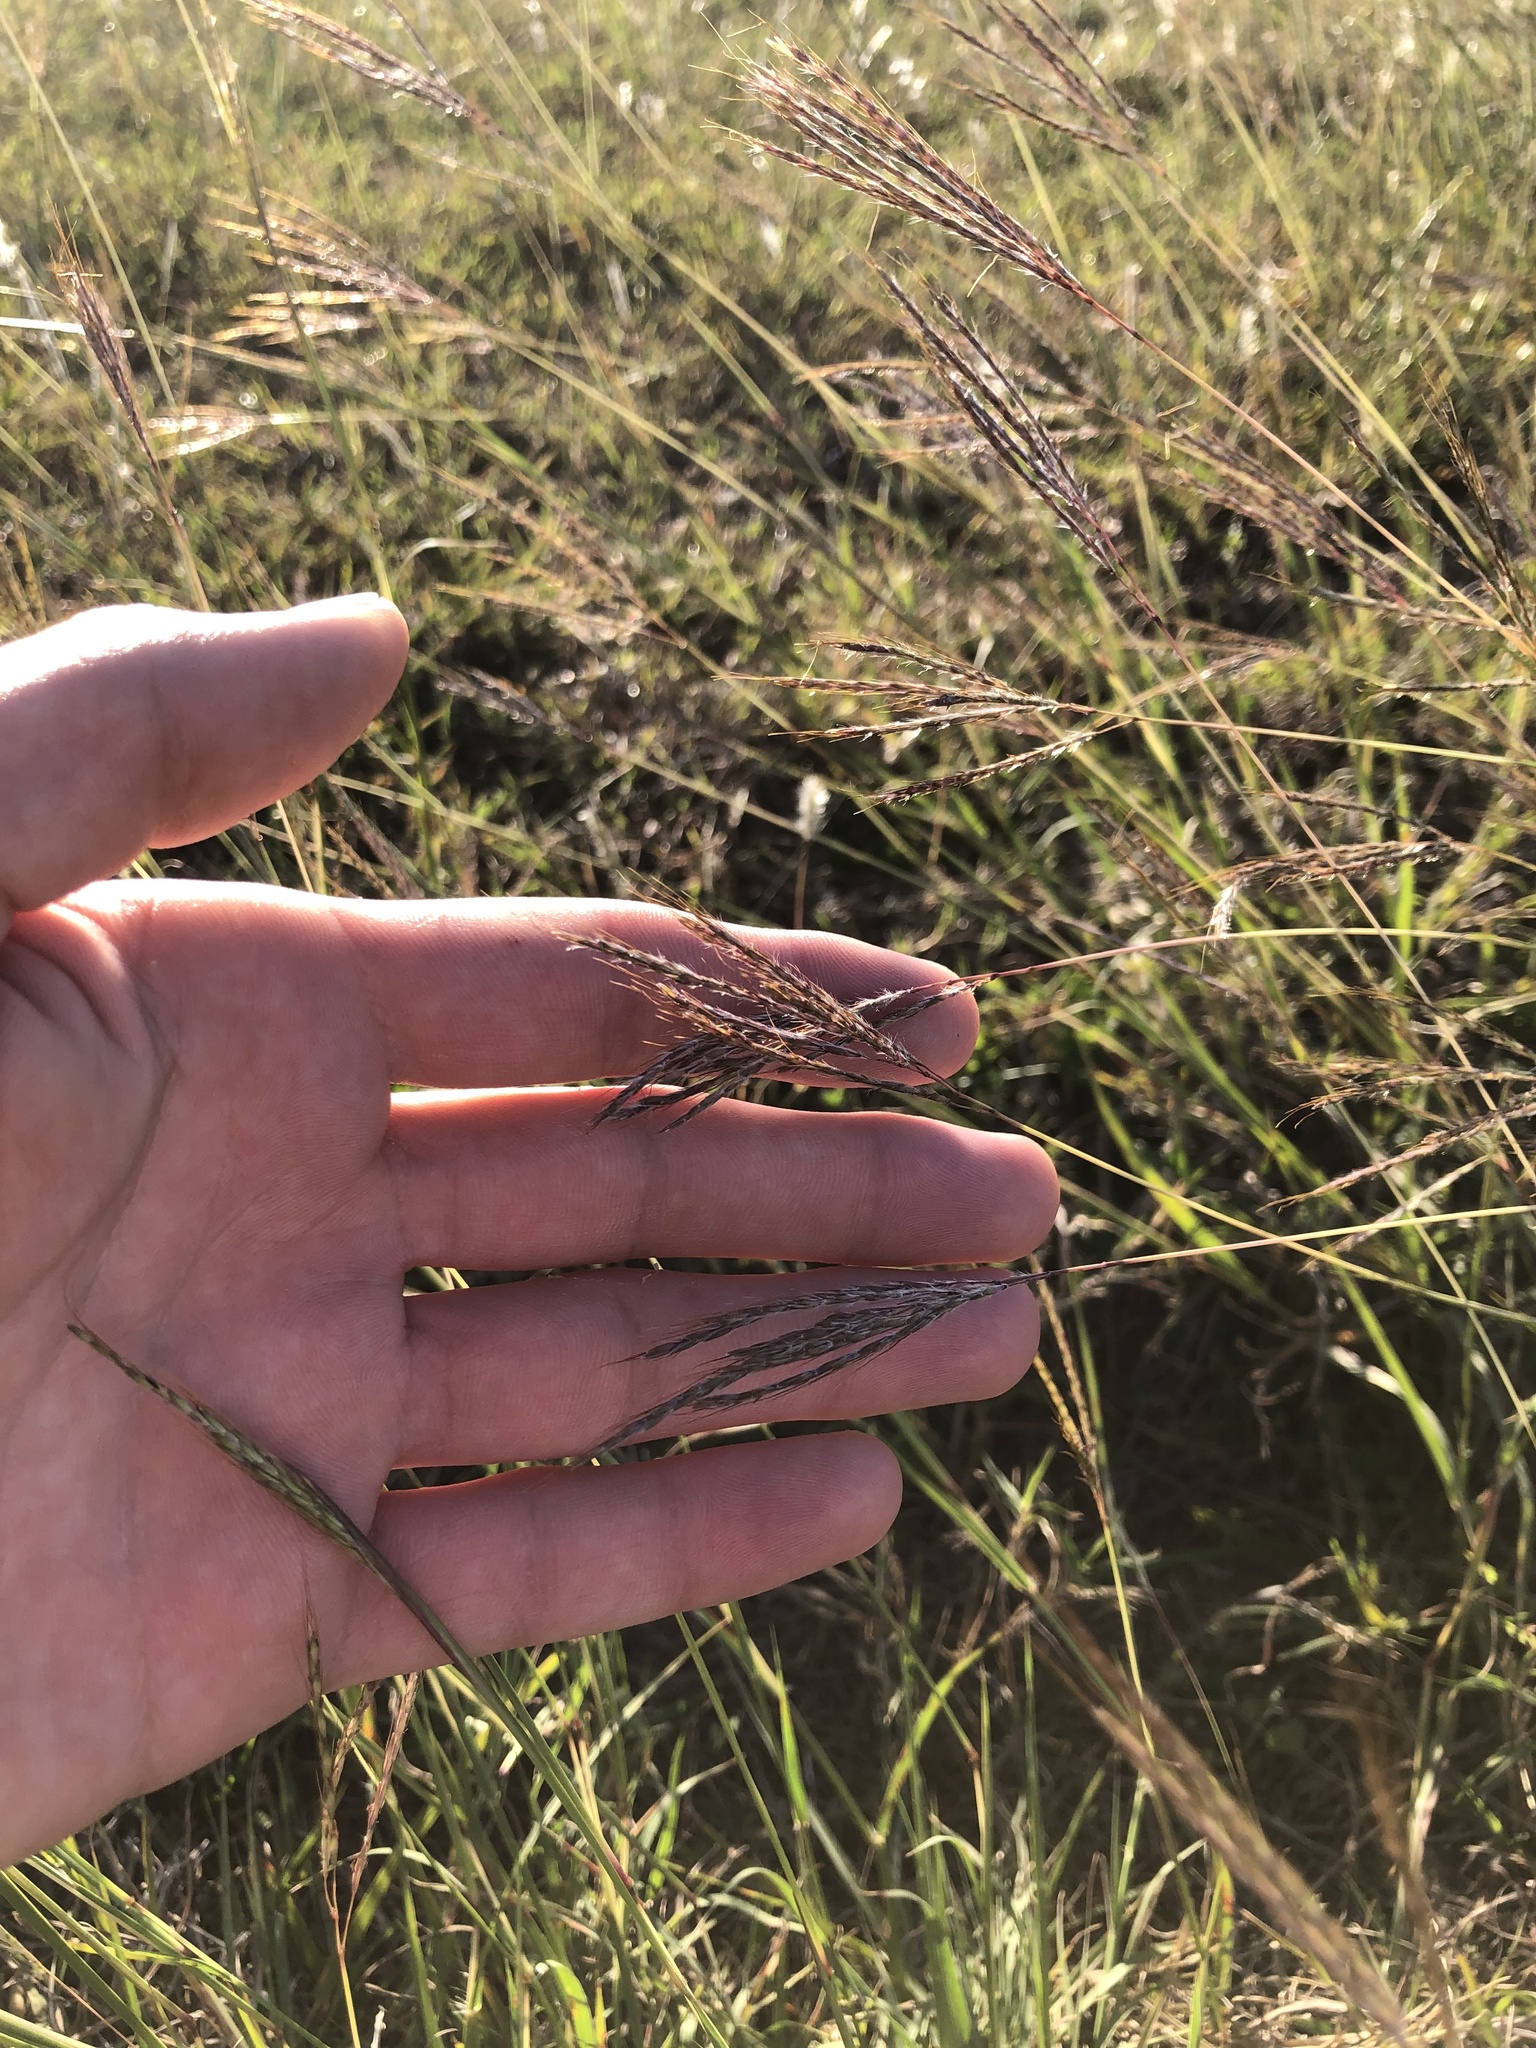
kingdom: Plantae
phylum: Tracheophyta
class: Liliopsida
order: Poales
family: Poaceae
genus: Bothriochloa
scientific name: Bothriochloa ischaemum
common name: Yellow bluestem
